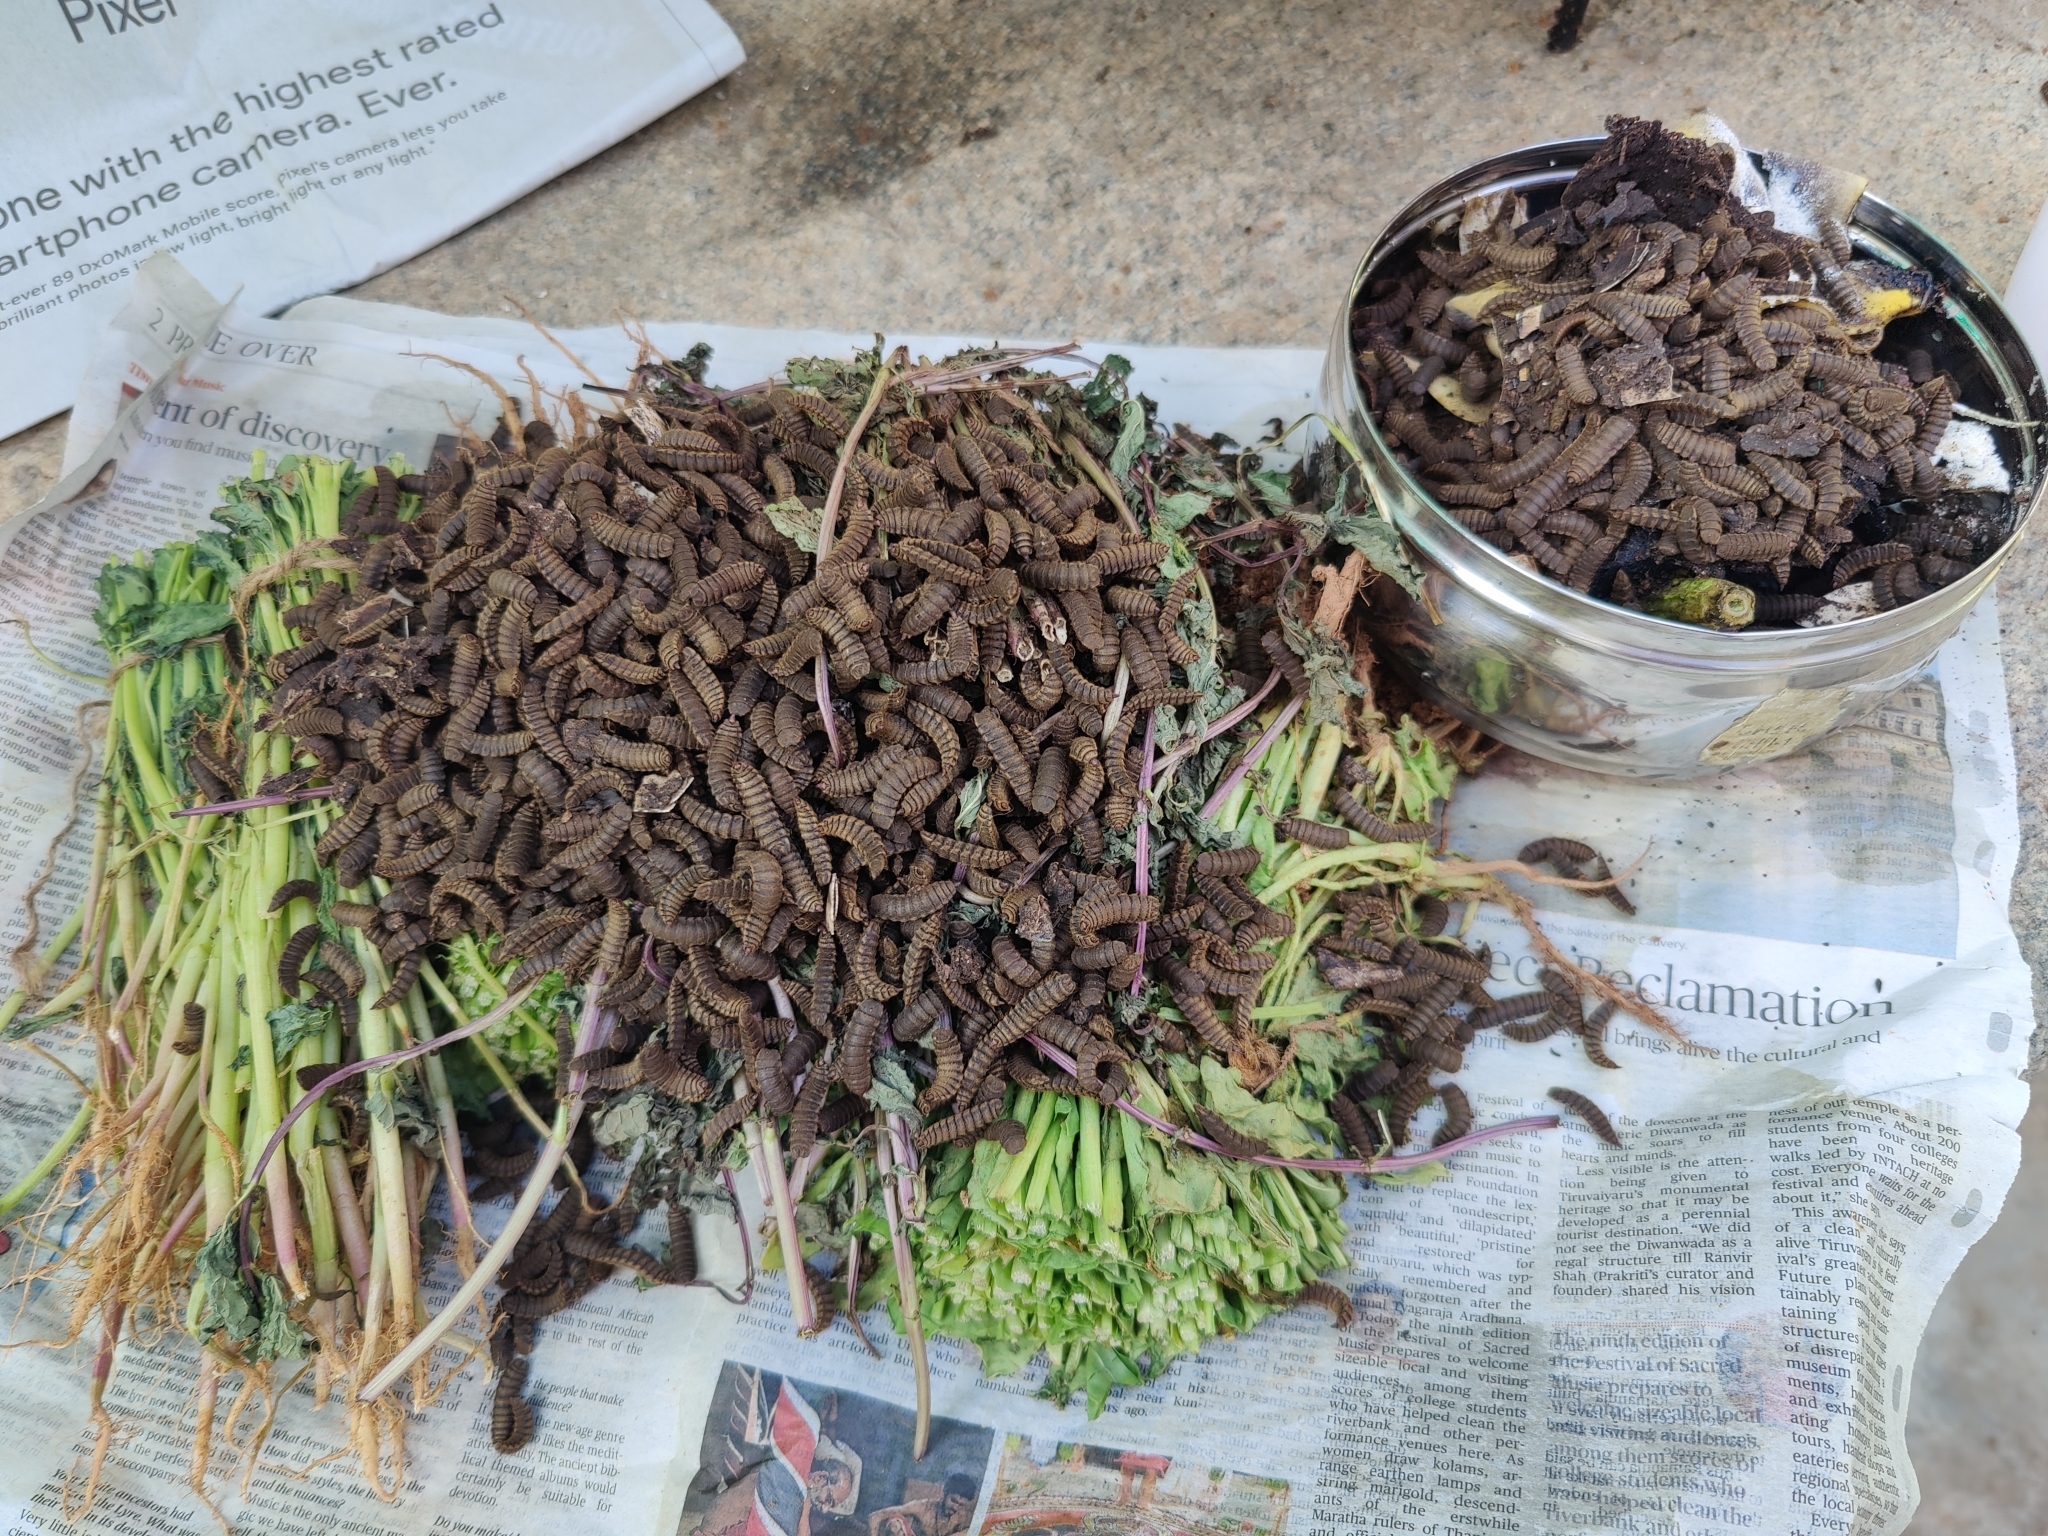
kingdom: Animalia
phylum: Arthropoda
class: Insecta
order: Diptera
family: Stratiomyidae
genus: Hermetia
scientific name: Hermetia illucens
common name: Black soldier fly
